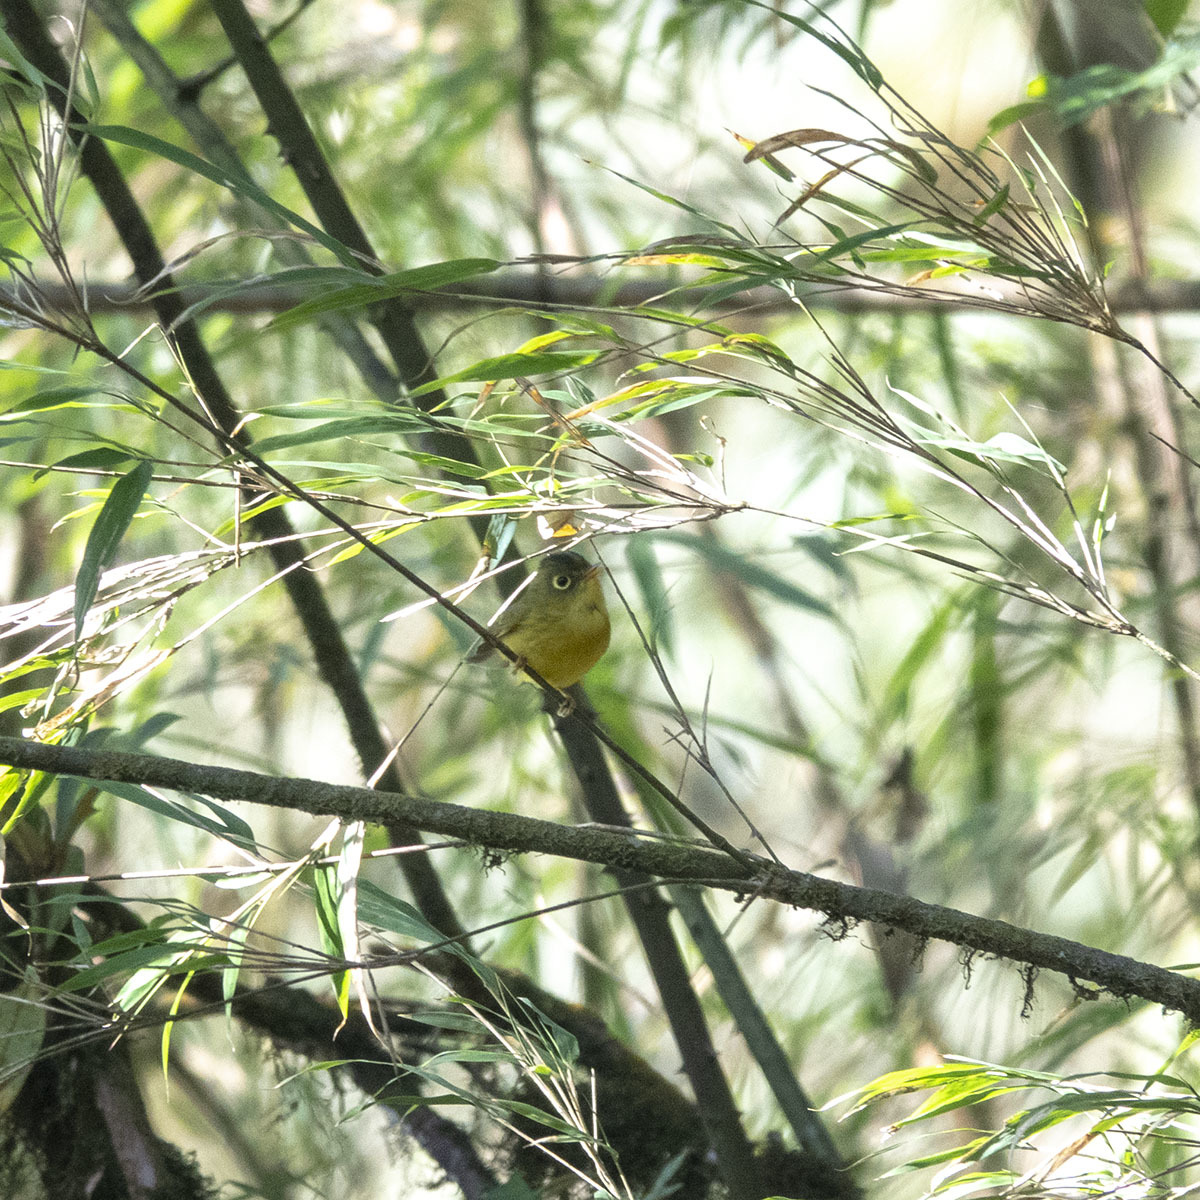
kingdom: Animalia
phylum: Chordata
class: Aves
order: Passeriformes
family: Phylloscopidae
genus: Seicercus
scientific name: Seicercus burkii
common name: Green-crowned warbler
